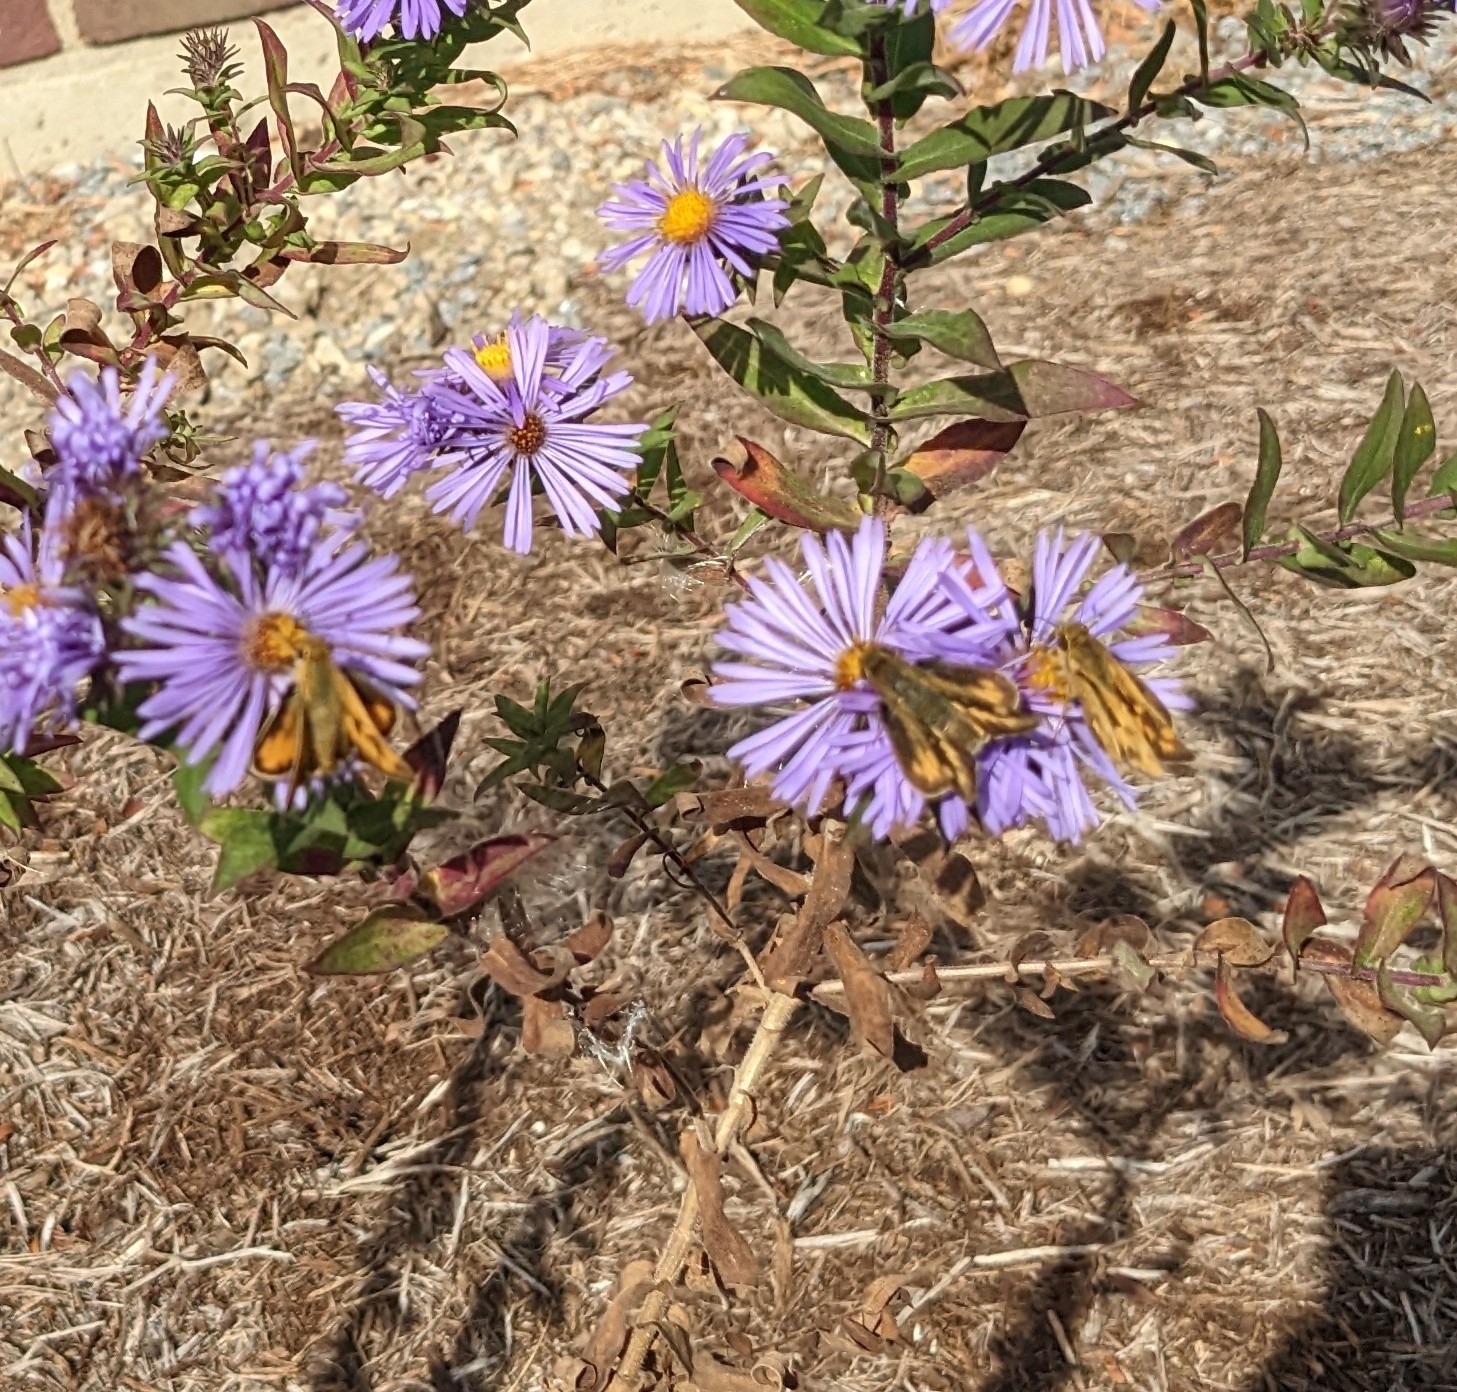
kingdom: Animalia
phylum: Arthropoda
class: Insecta
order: Lepidoptera
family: Hesperiidae
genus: Hylephila
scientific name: Hylephila phyleus
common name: Fiery skipper
